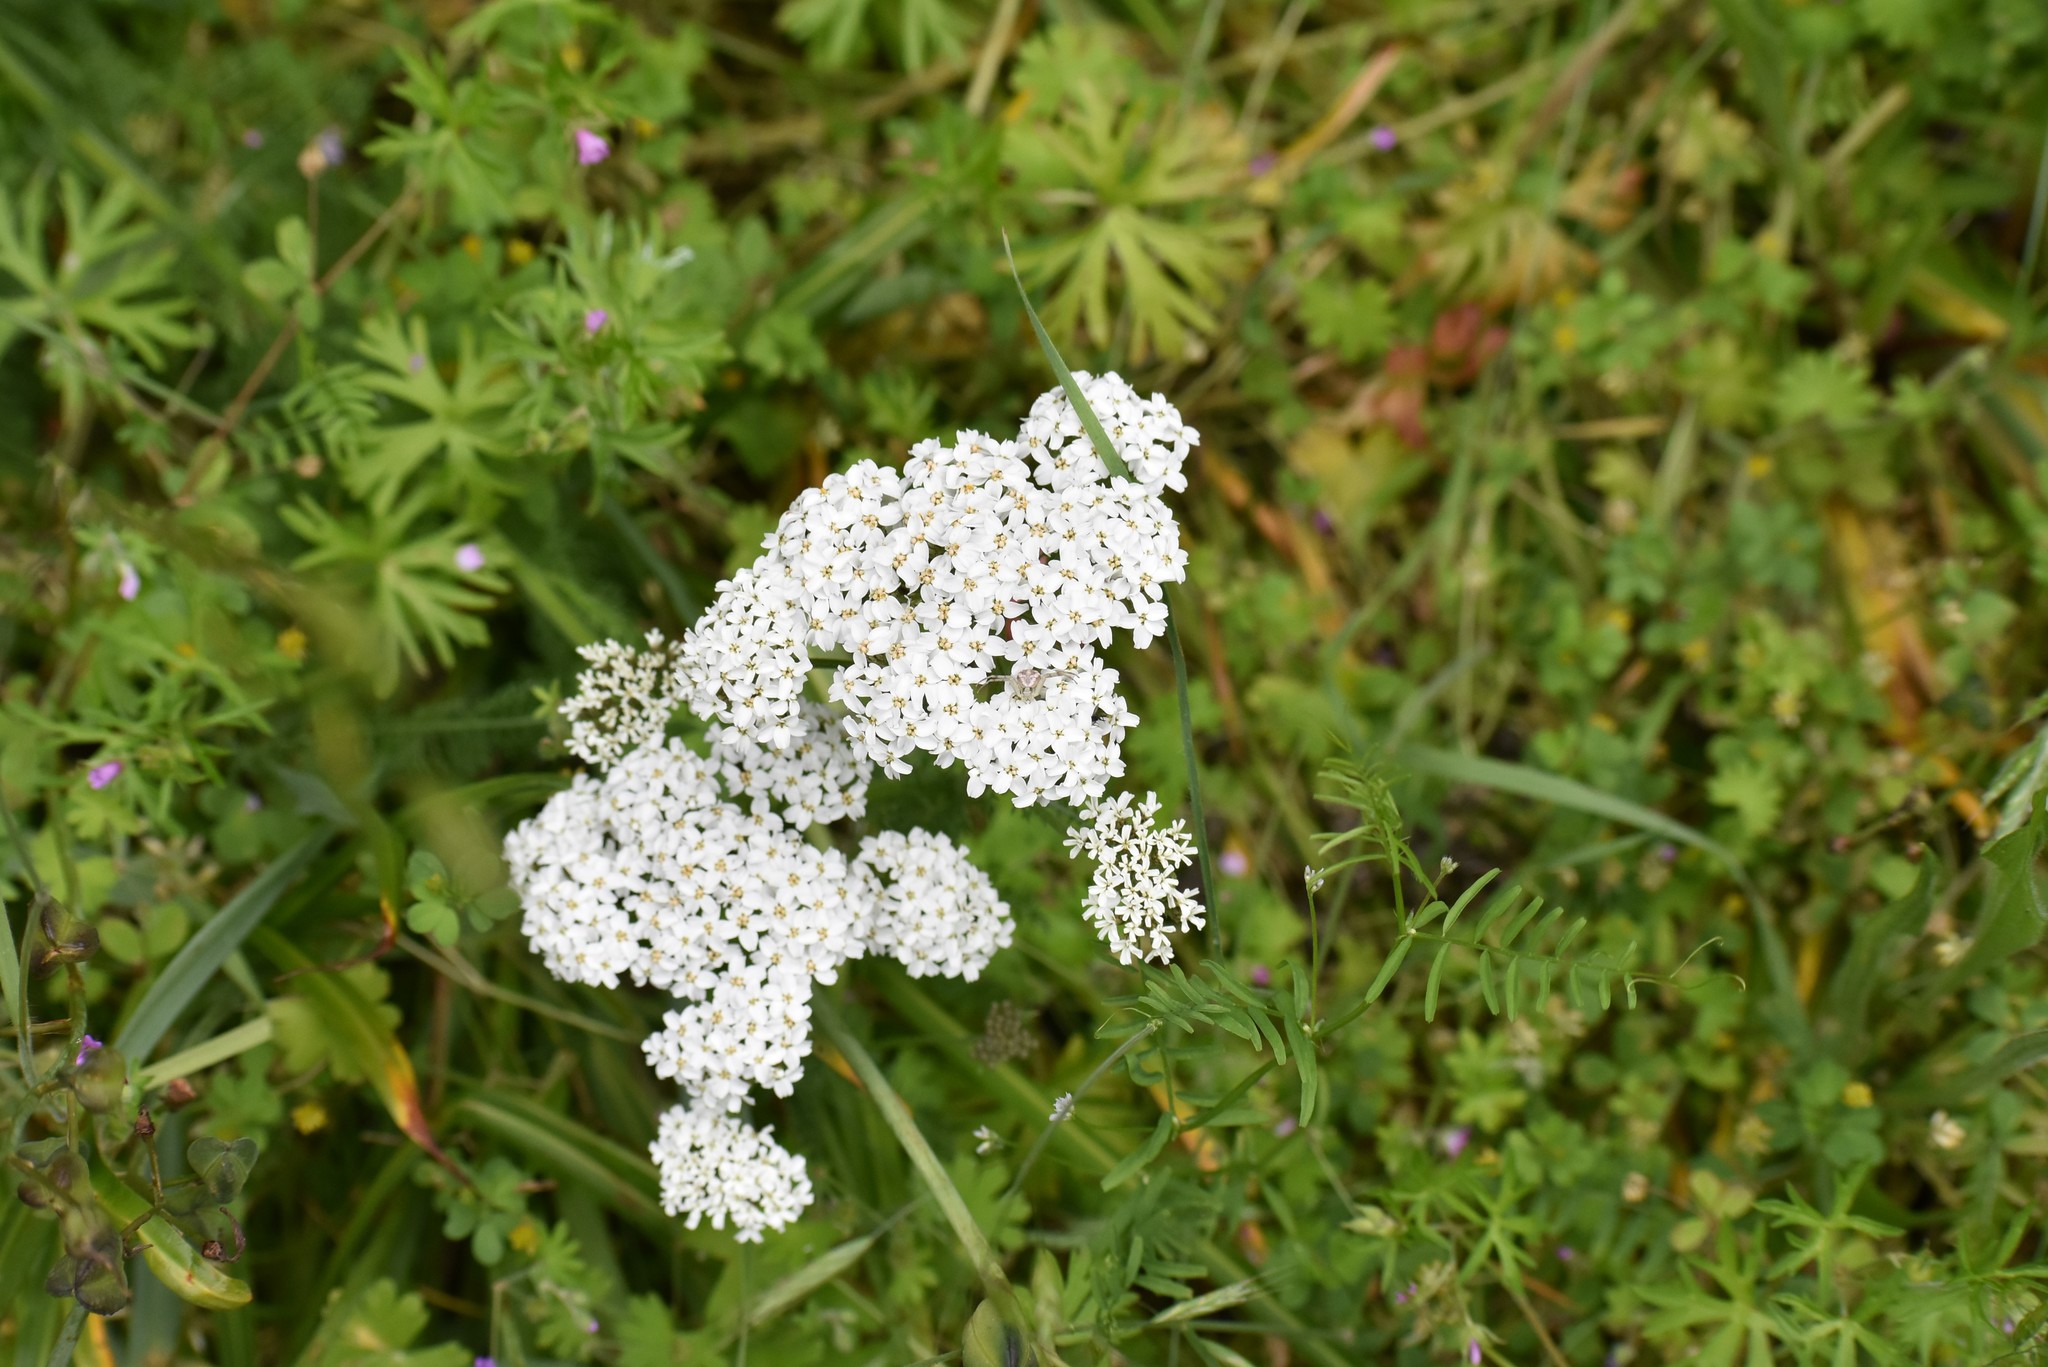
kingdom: Plantae
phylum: Tracheophyta
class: Magnoliopsida
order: Asterales
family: Asteraceae
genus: Achillea
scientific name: Achillea millefolium
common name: Yarrow
